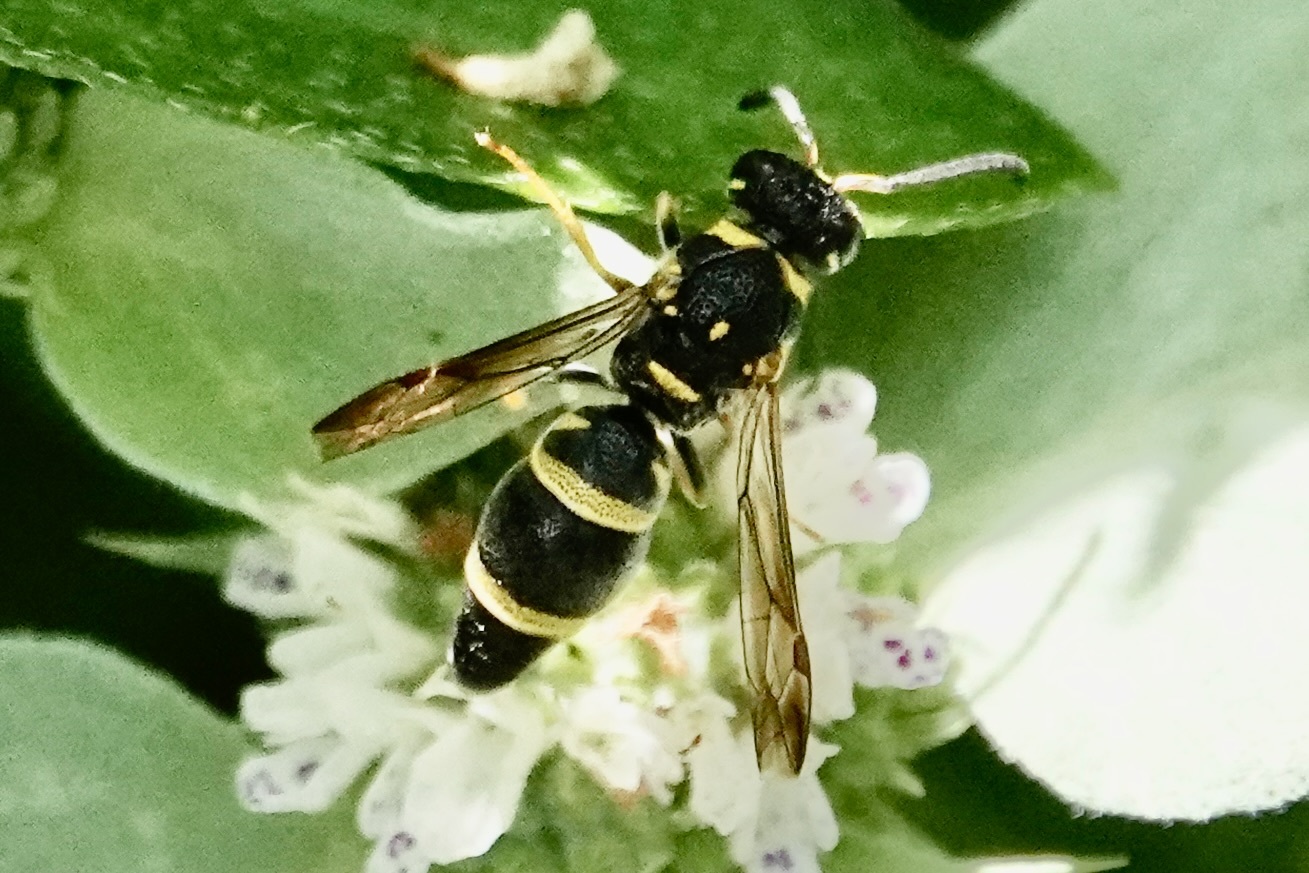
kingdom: Animalia
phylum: Arthropoda
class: Insecta
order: Hymenoptera
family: Eumenidae
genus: Parancistrocerus
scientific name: Parancistrocerus fulvipes
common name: Potter wasp
